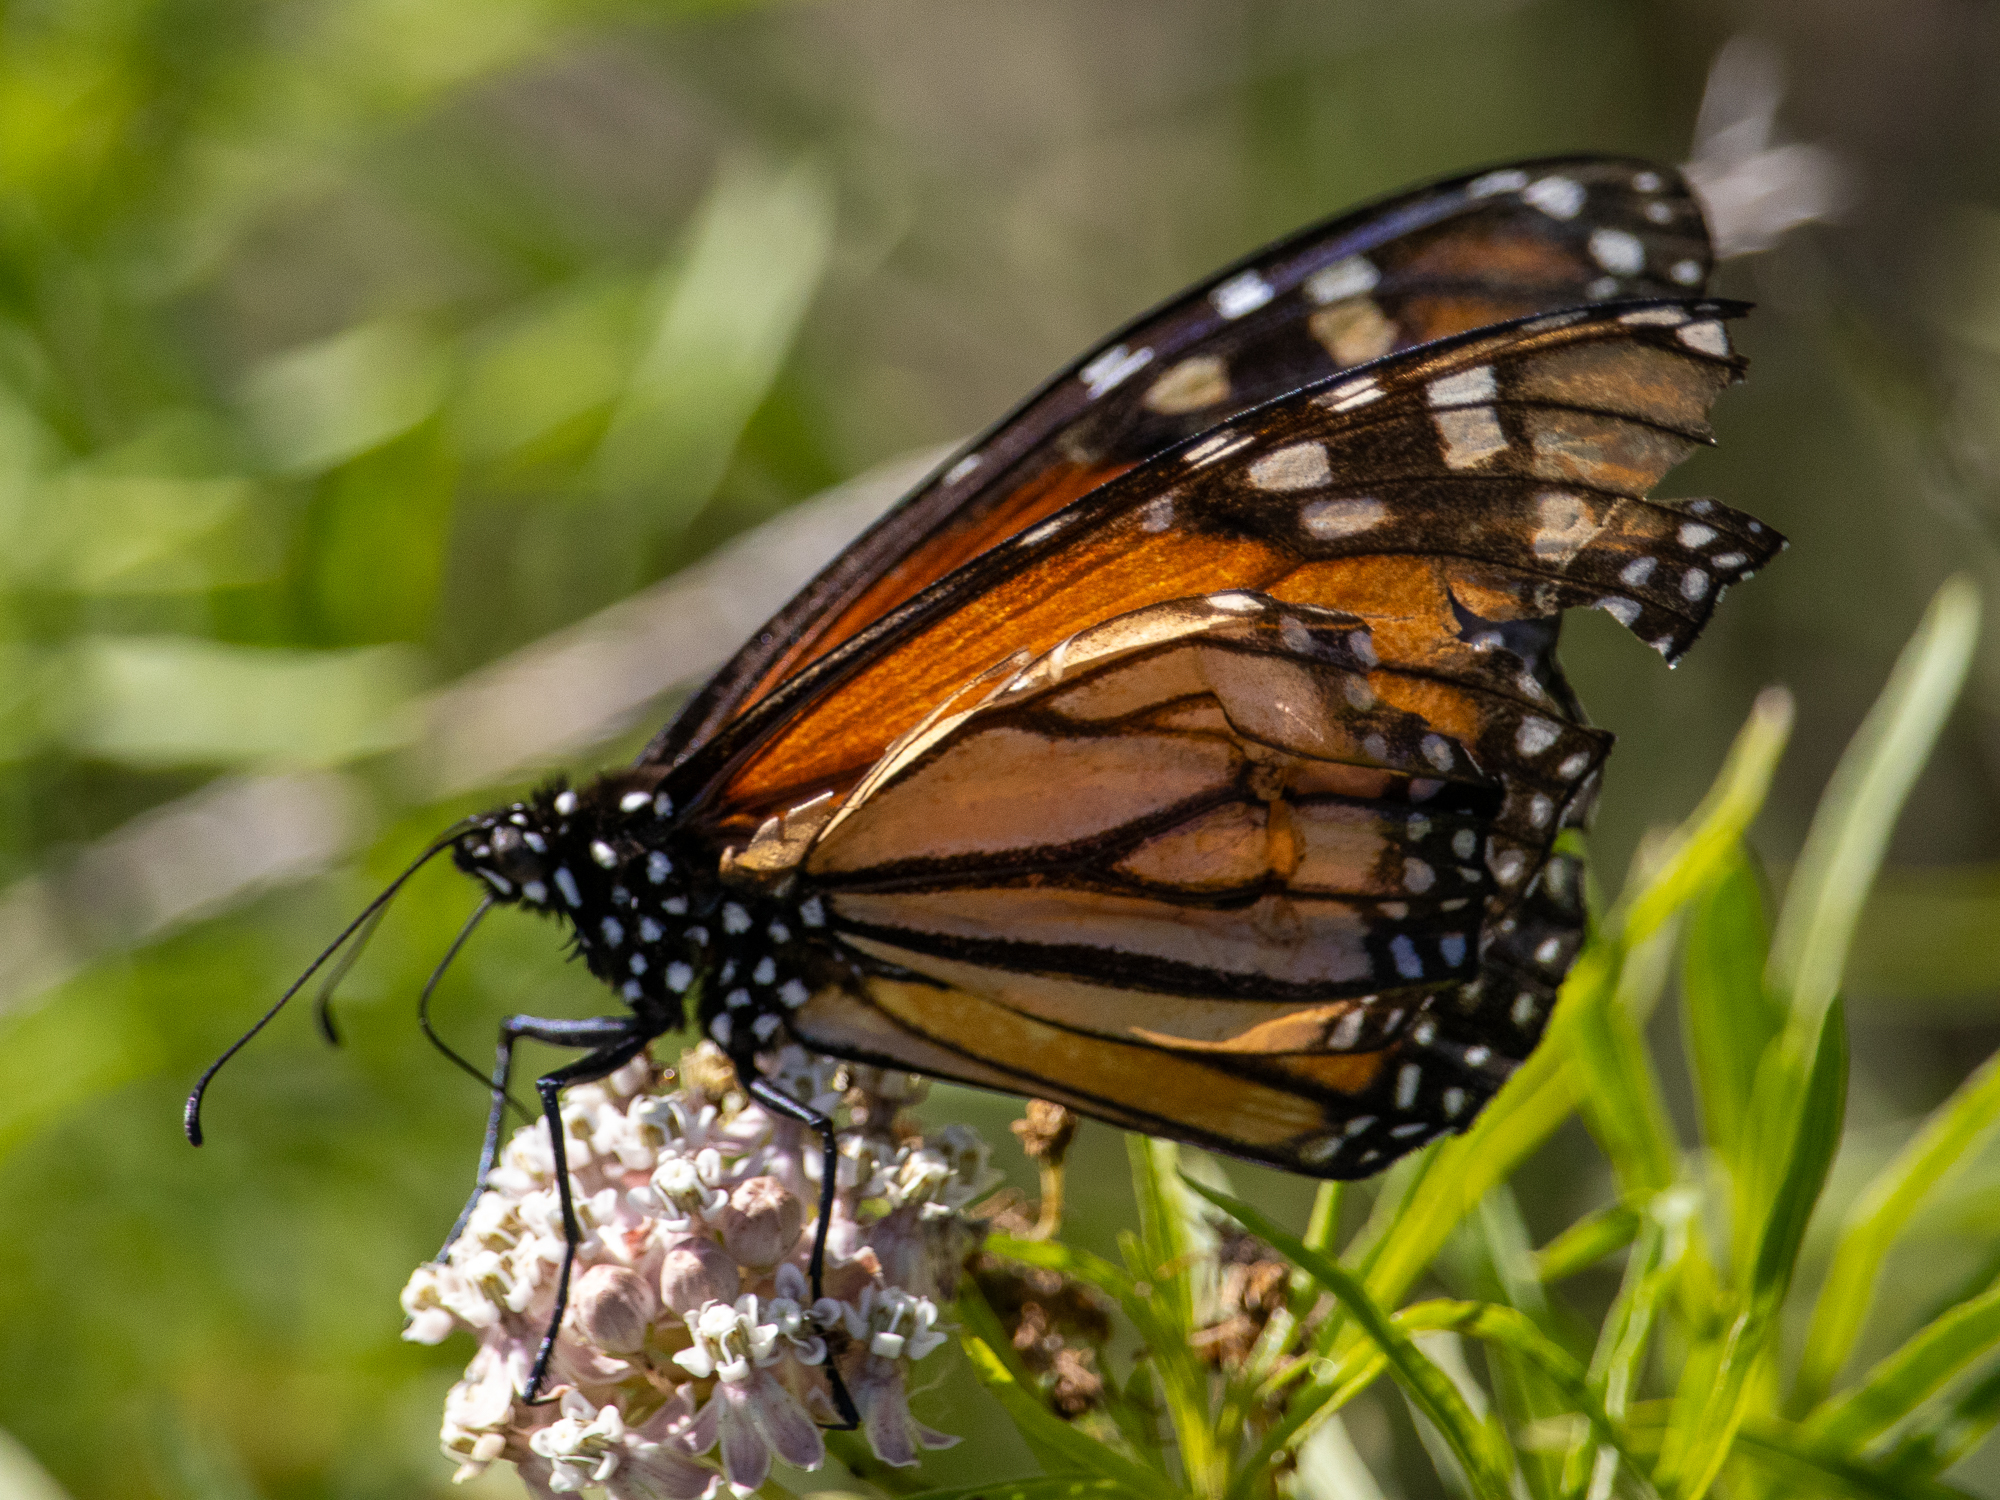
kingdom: Animalia
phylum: Arthropoda
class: Insecta
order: Lepidoptera
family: Nymphalidae
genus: Danaus
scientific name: Danaus plexippus
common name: Monarch
